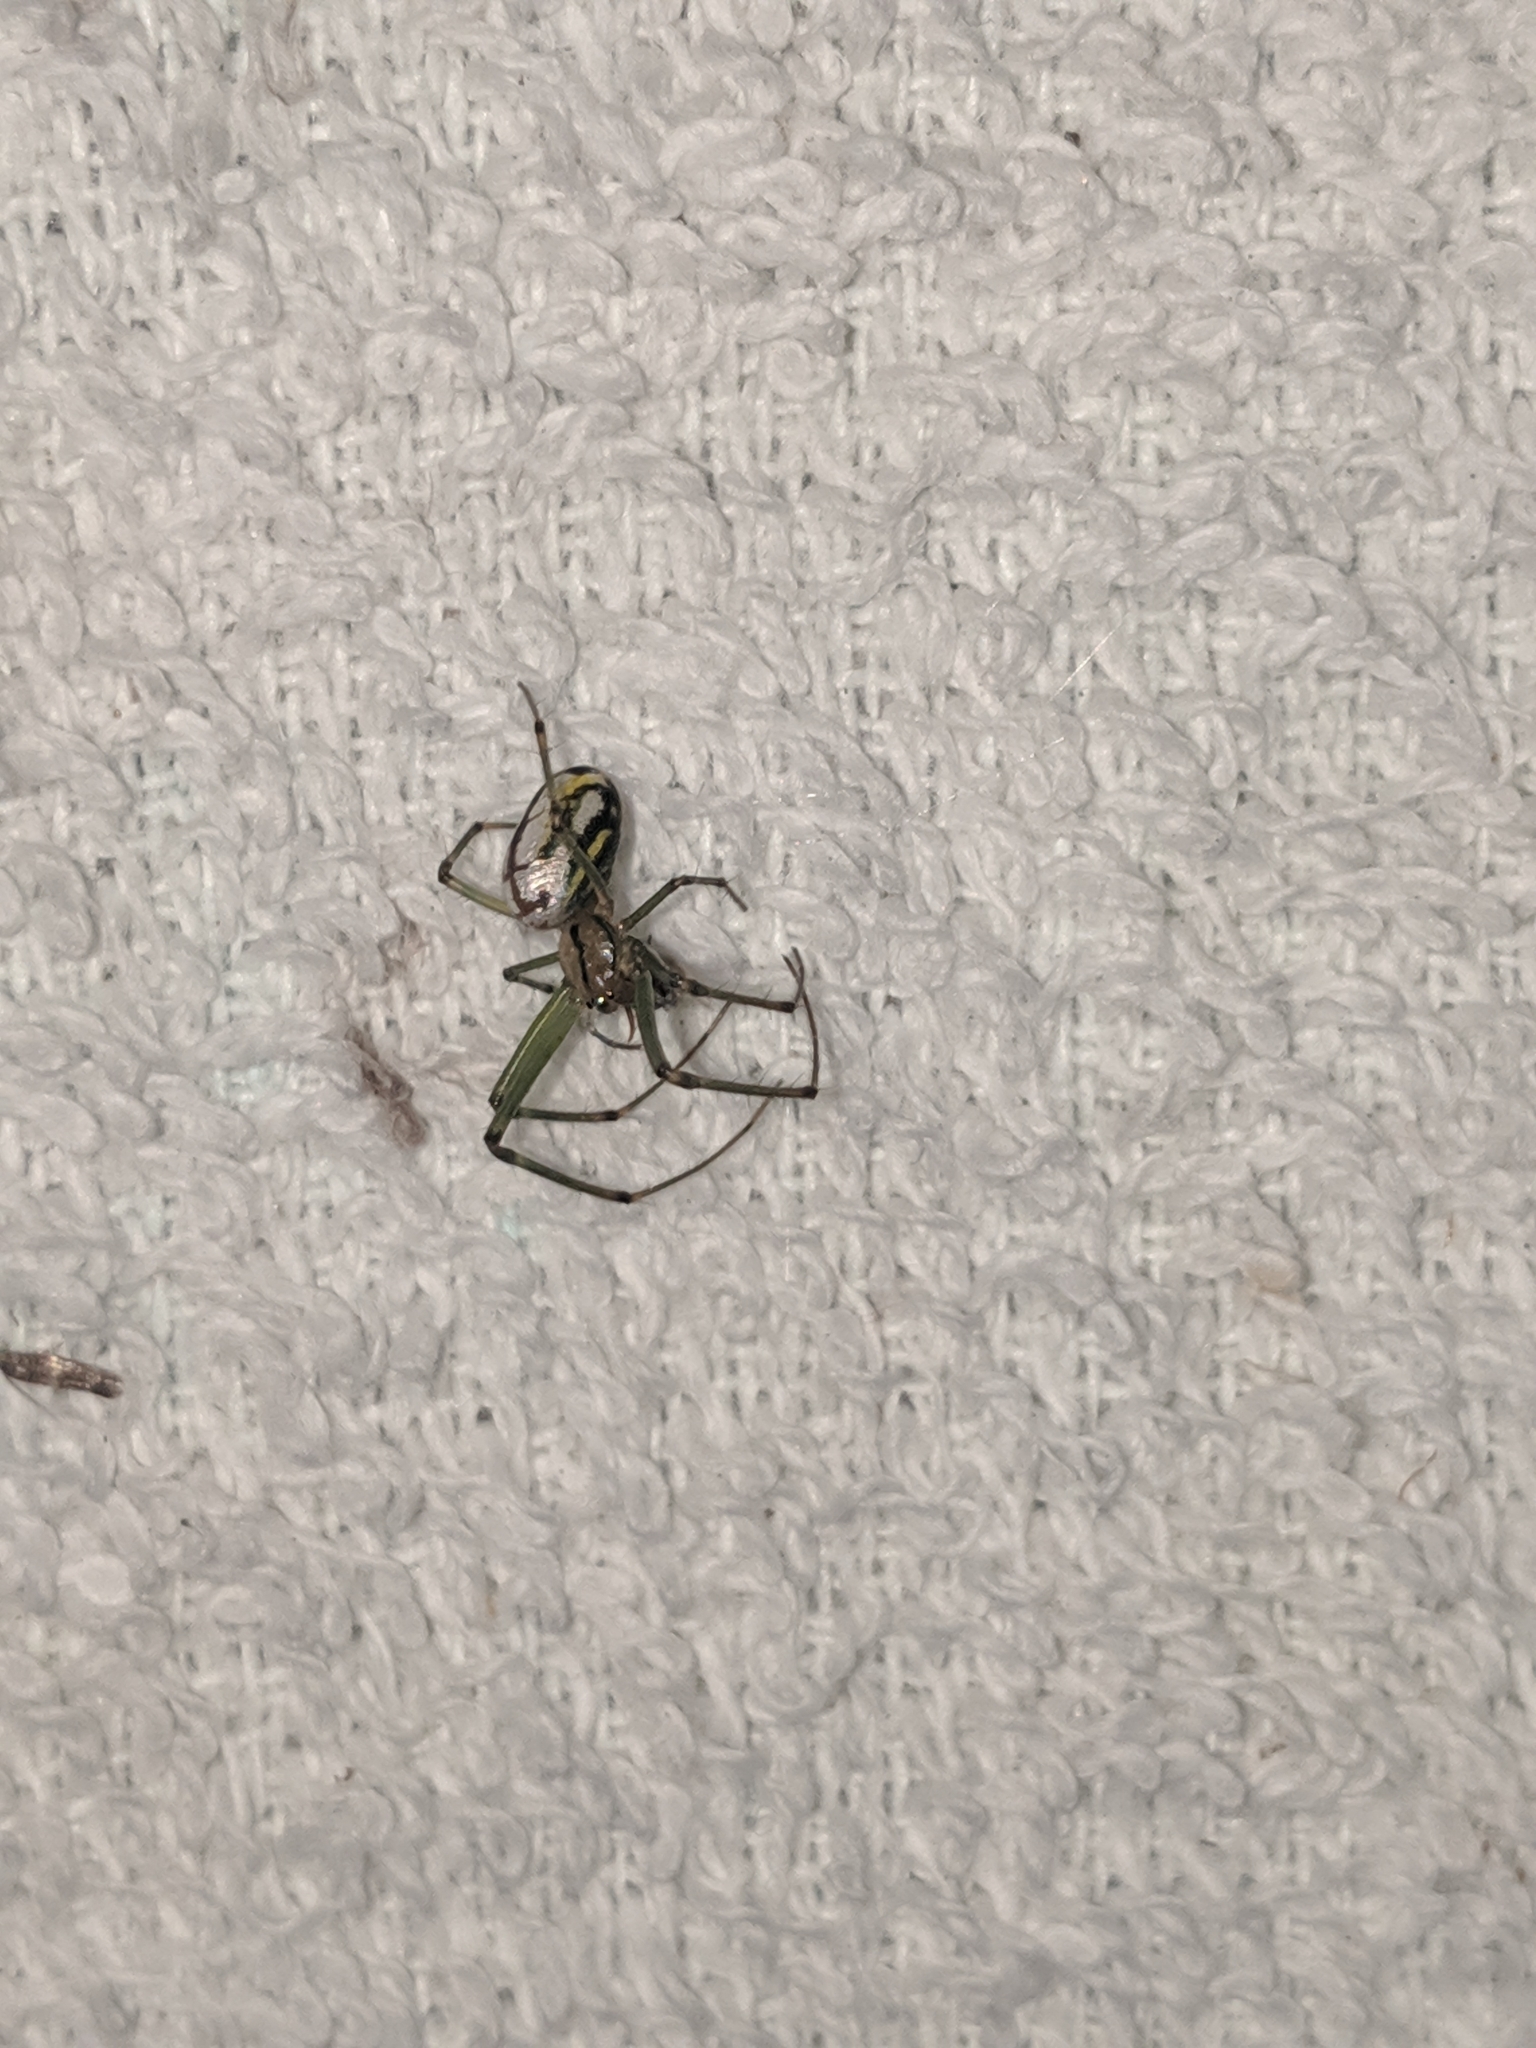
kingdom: Animalia
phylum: Arthropoda
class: Arachnida
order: Araneae
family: Tetragnathidae
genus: Leucauge
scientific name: Leucauge venusta
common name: Longjawed orb weavers
